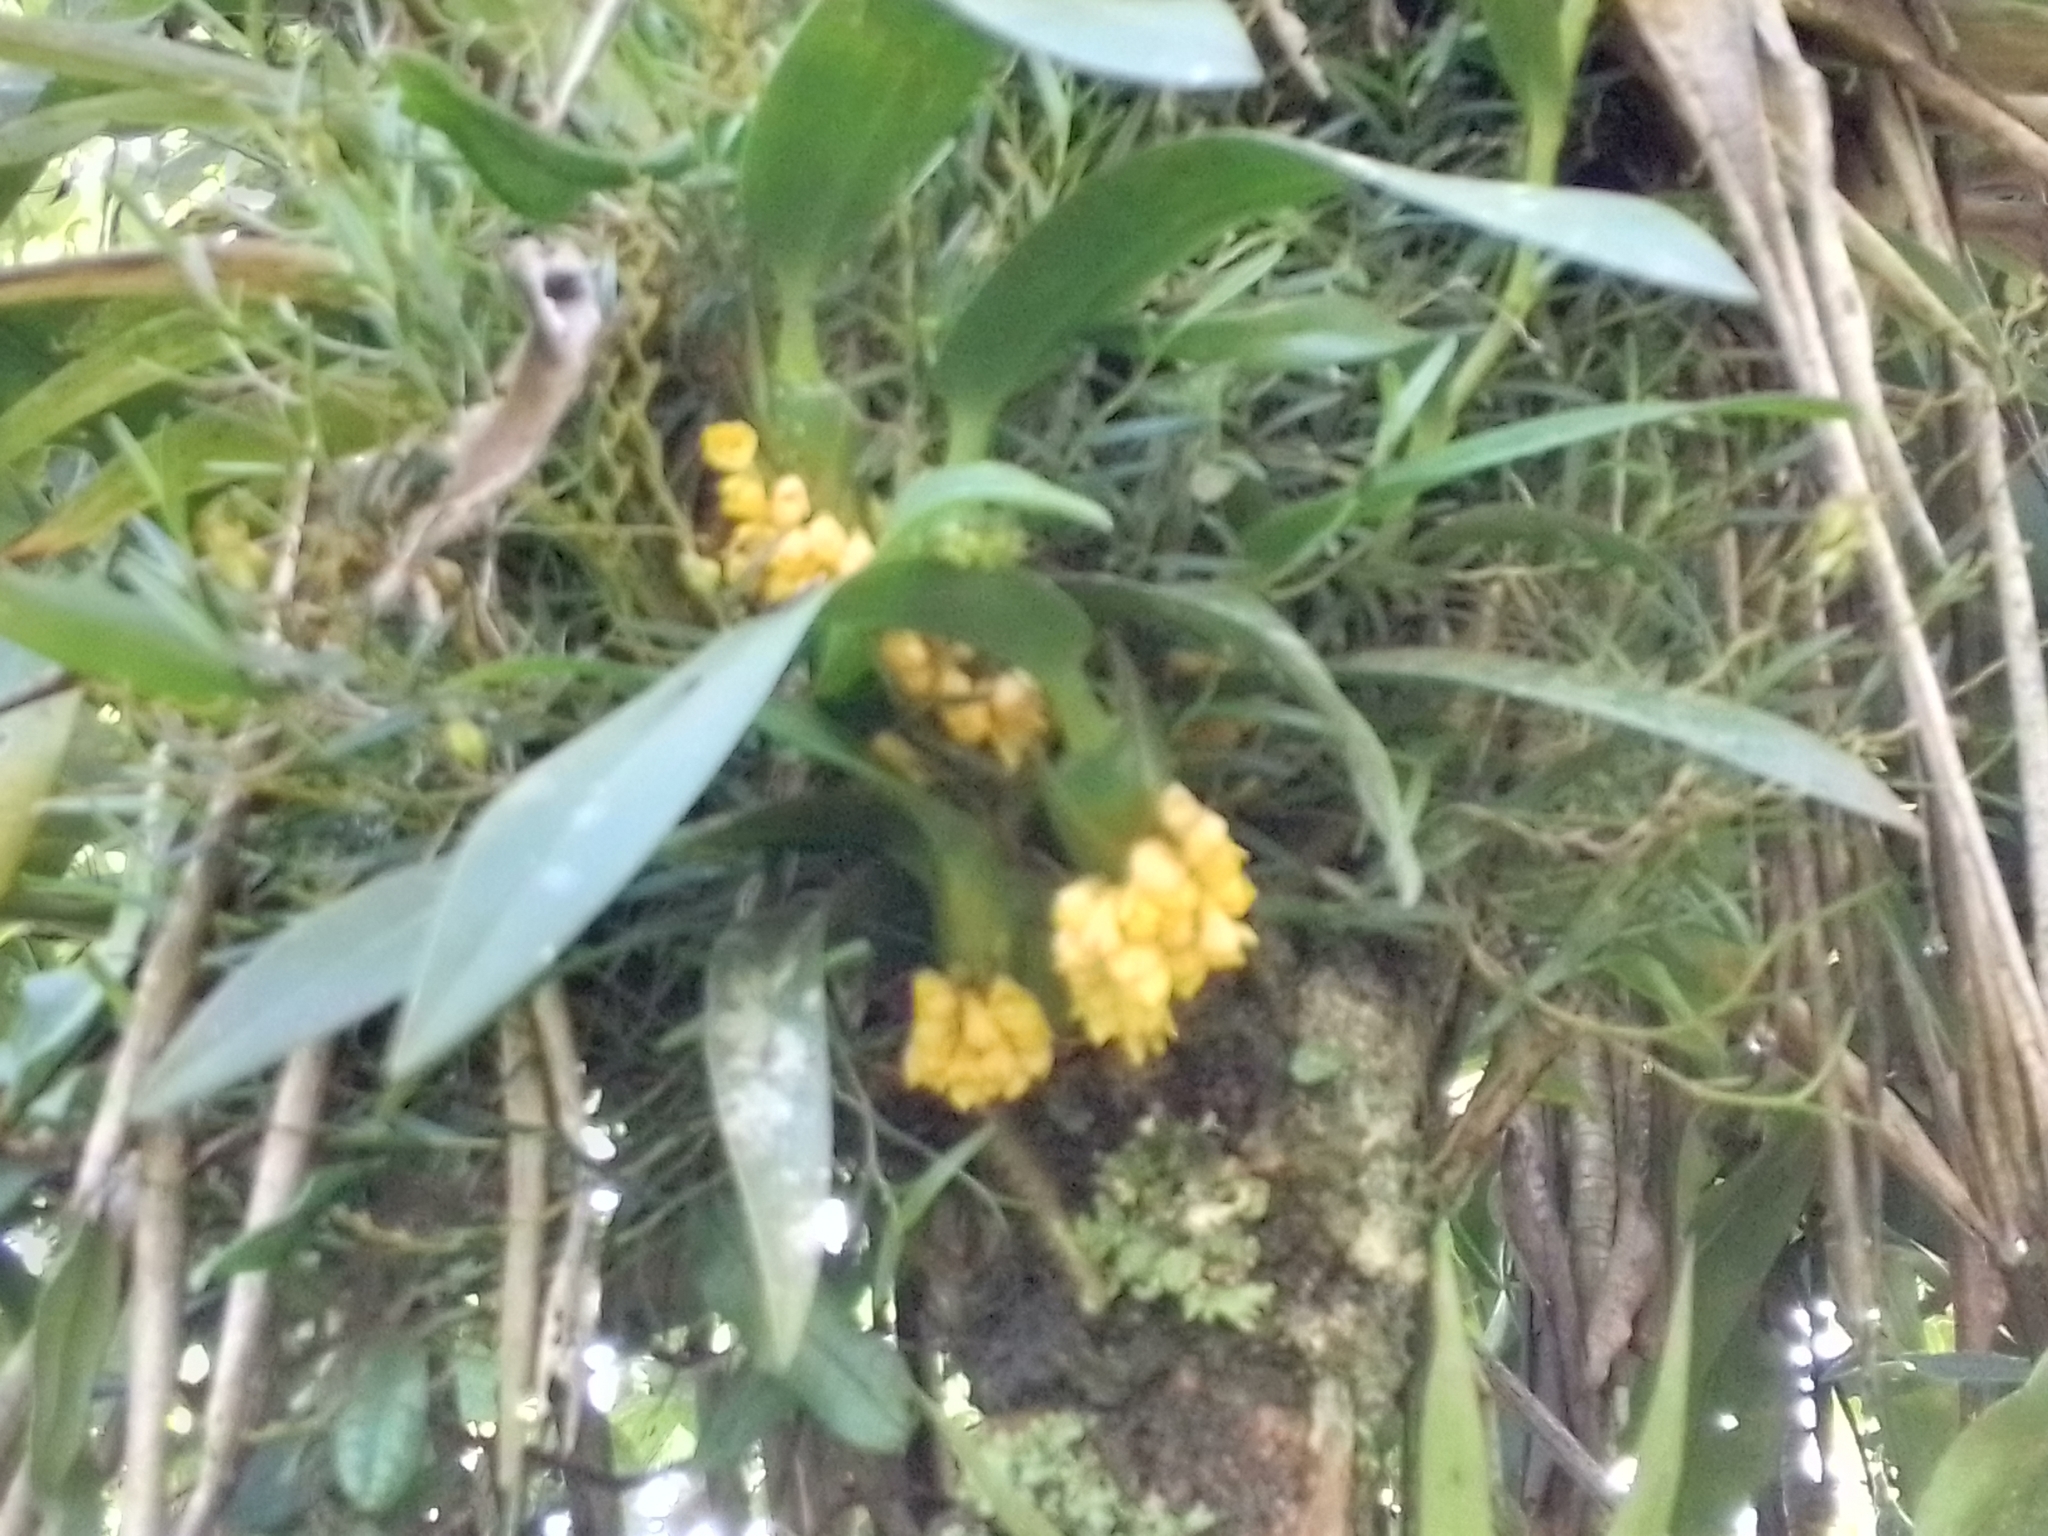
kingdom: Plantae
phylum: Tracheophyta
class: Liliopsida
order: Asparagales
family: Orchidaceae
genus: Maxillaria
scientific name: Maxillaria pseudoneglecta
